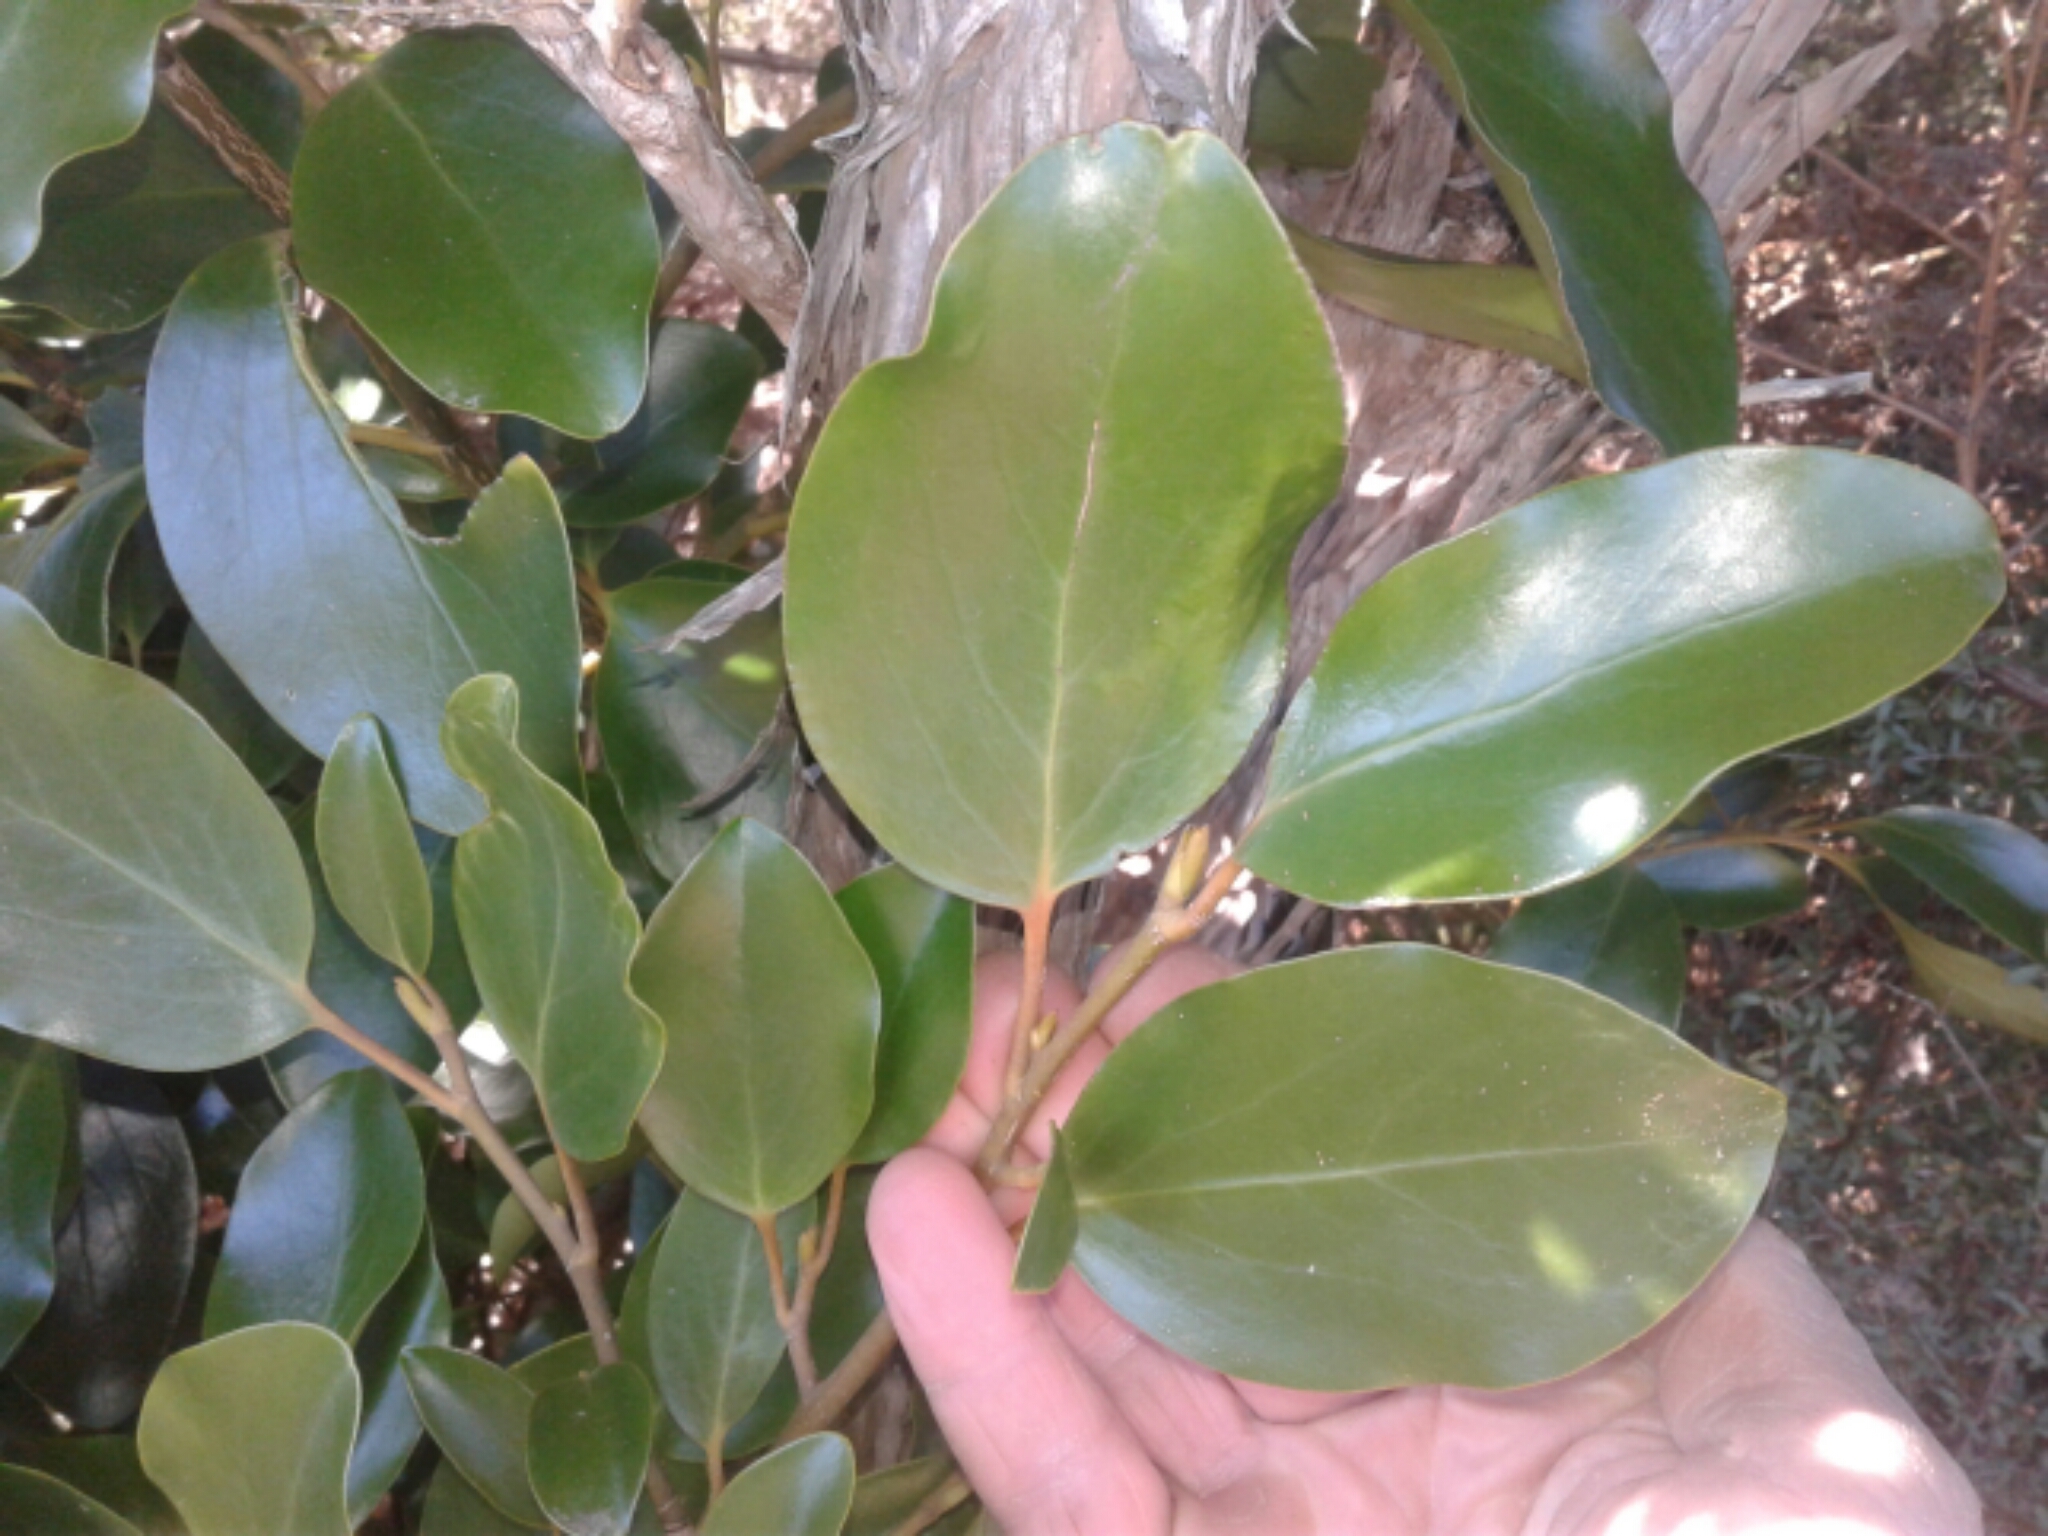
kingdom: Plantae
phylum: Tracheophyta
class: Magnoliopsida
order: Apiales
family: Griseliniaceae
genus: Griselinia
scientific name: Griselinia littoralis
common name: New zealand broadleaf
